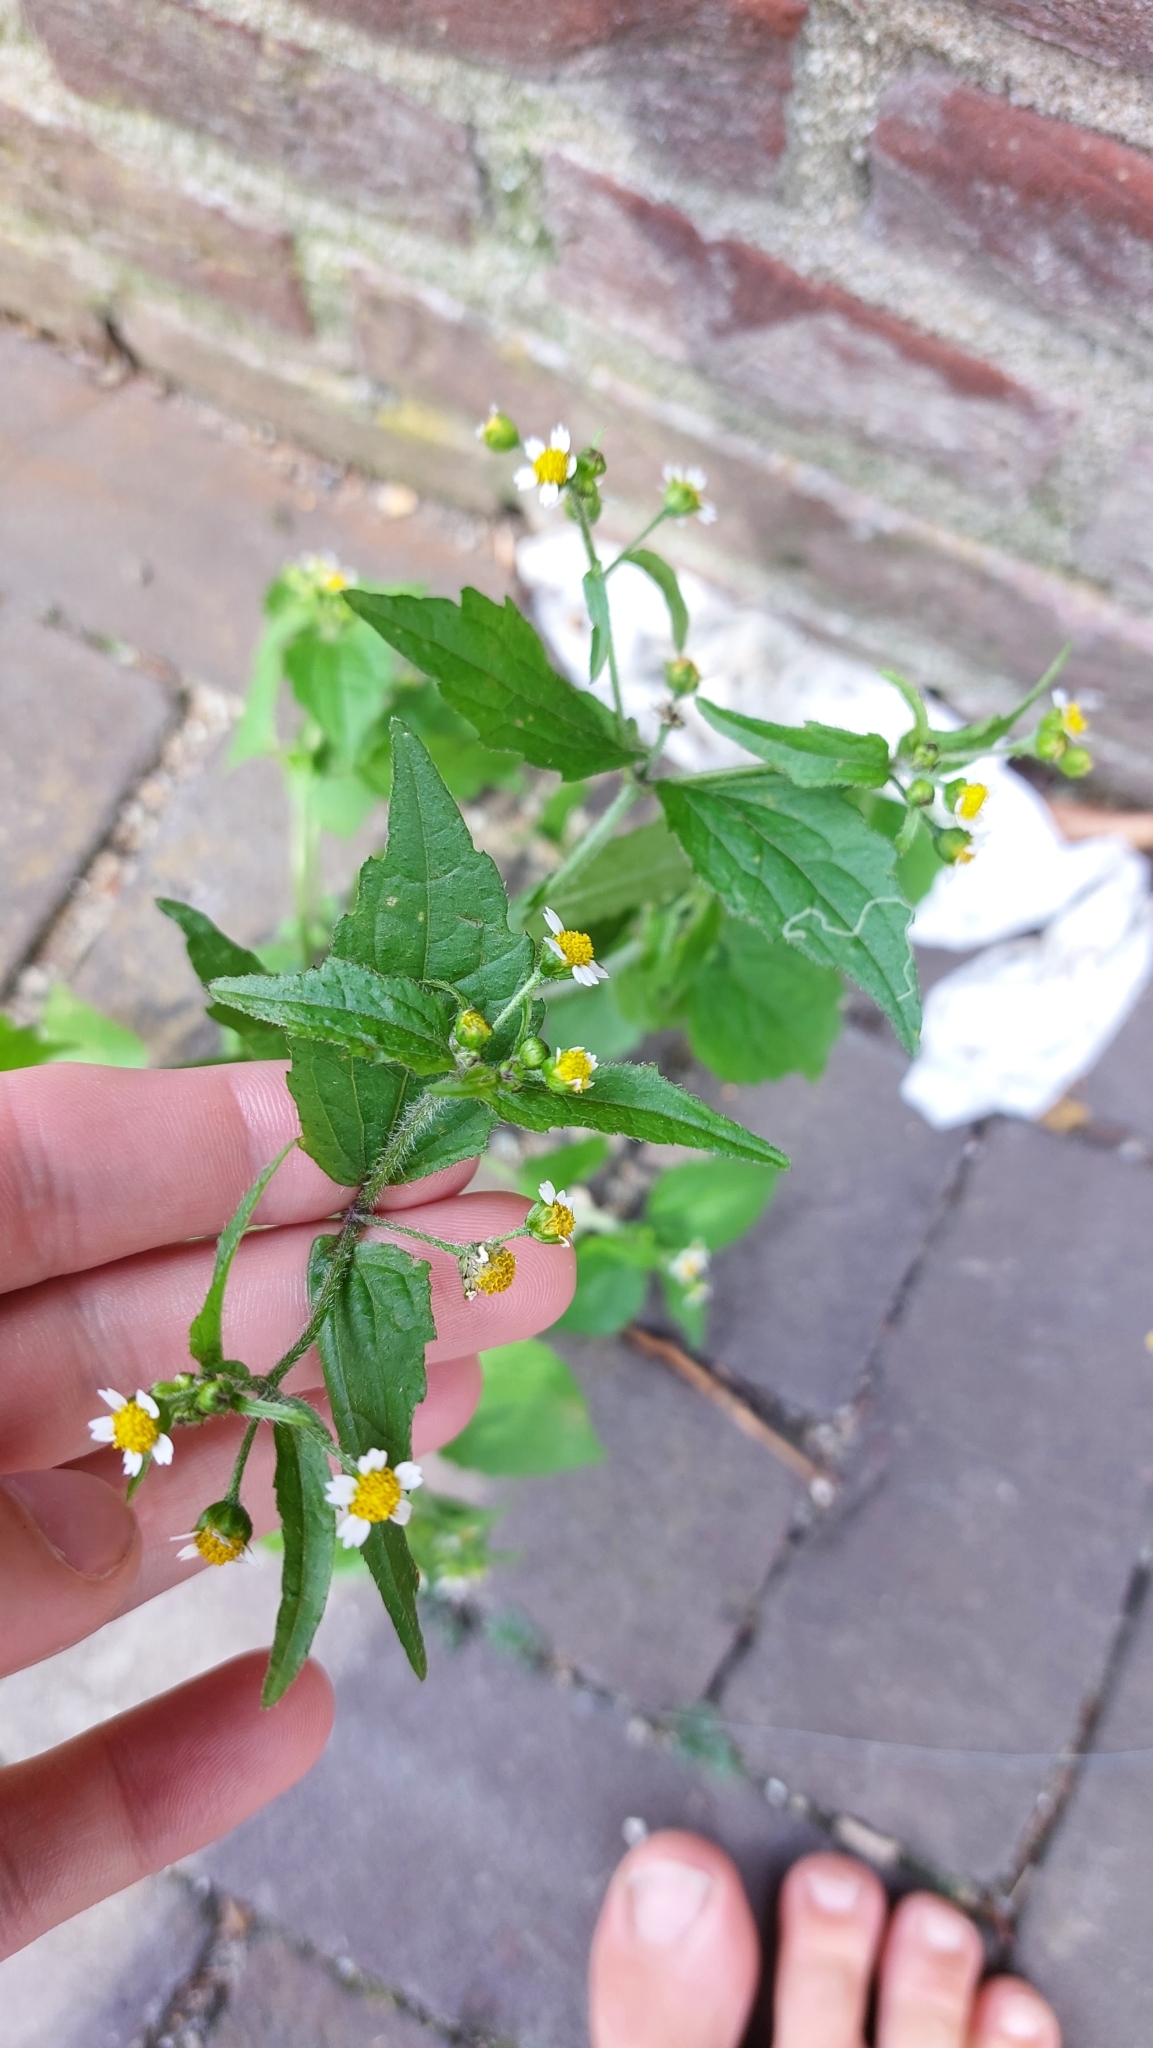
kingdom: Plantae
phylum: Tracheophyta
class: Magnoliopsida
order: Asterales
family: Asteraceae
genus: Galinsoga
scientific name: Galinsoga quadriradiata
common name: Shaggy soldier
